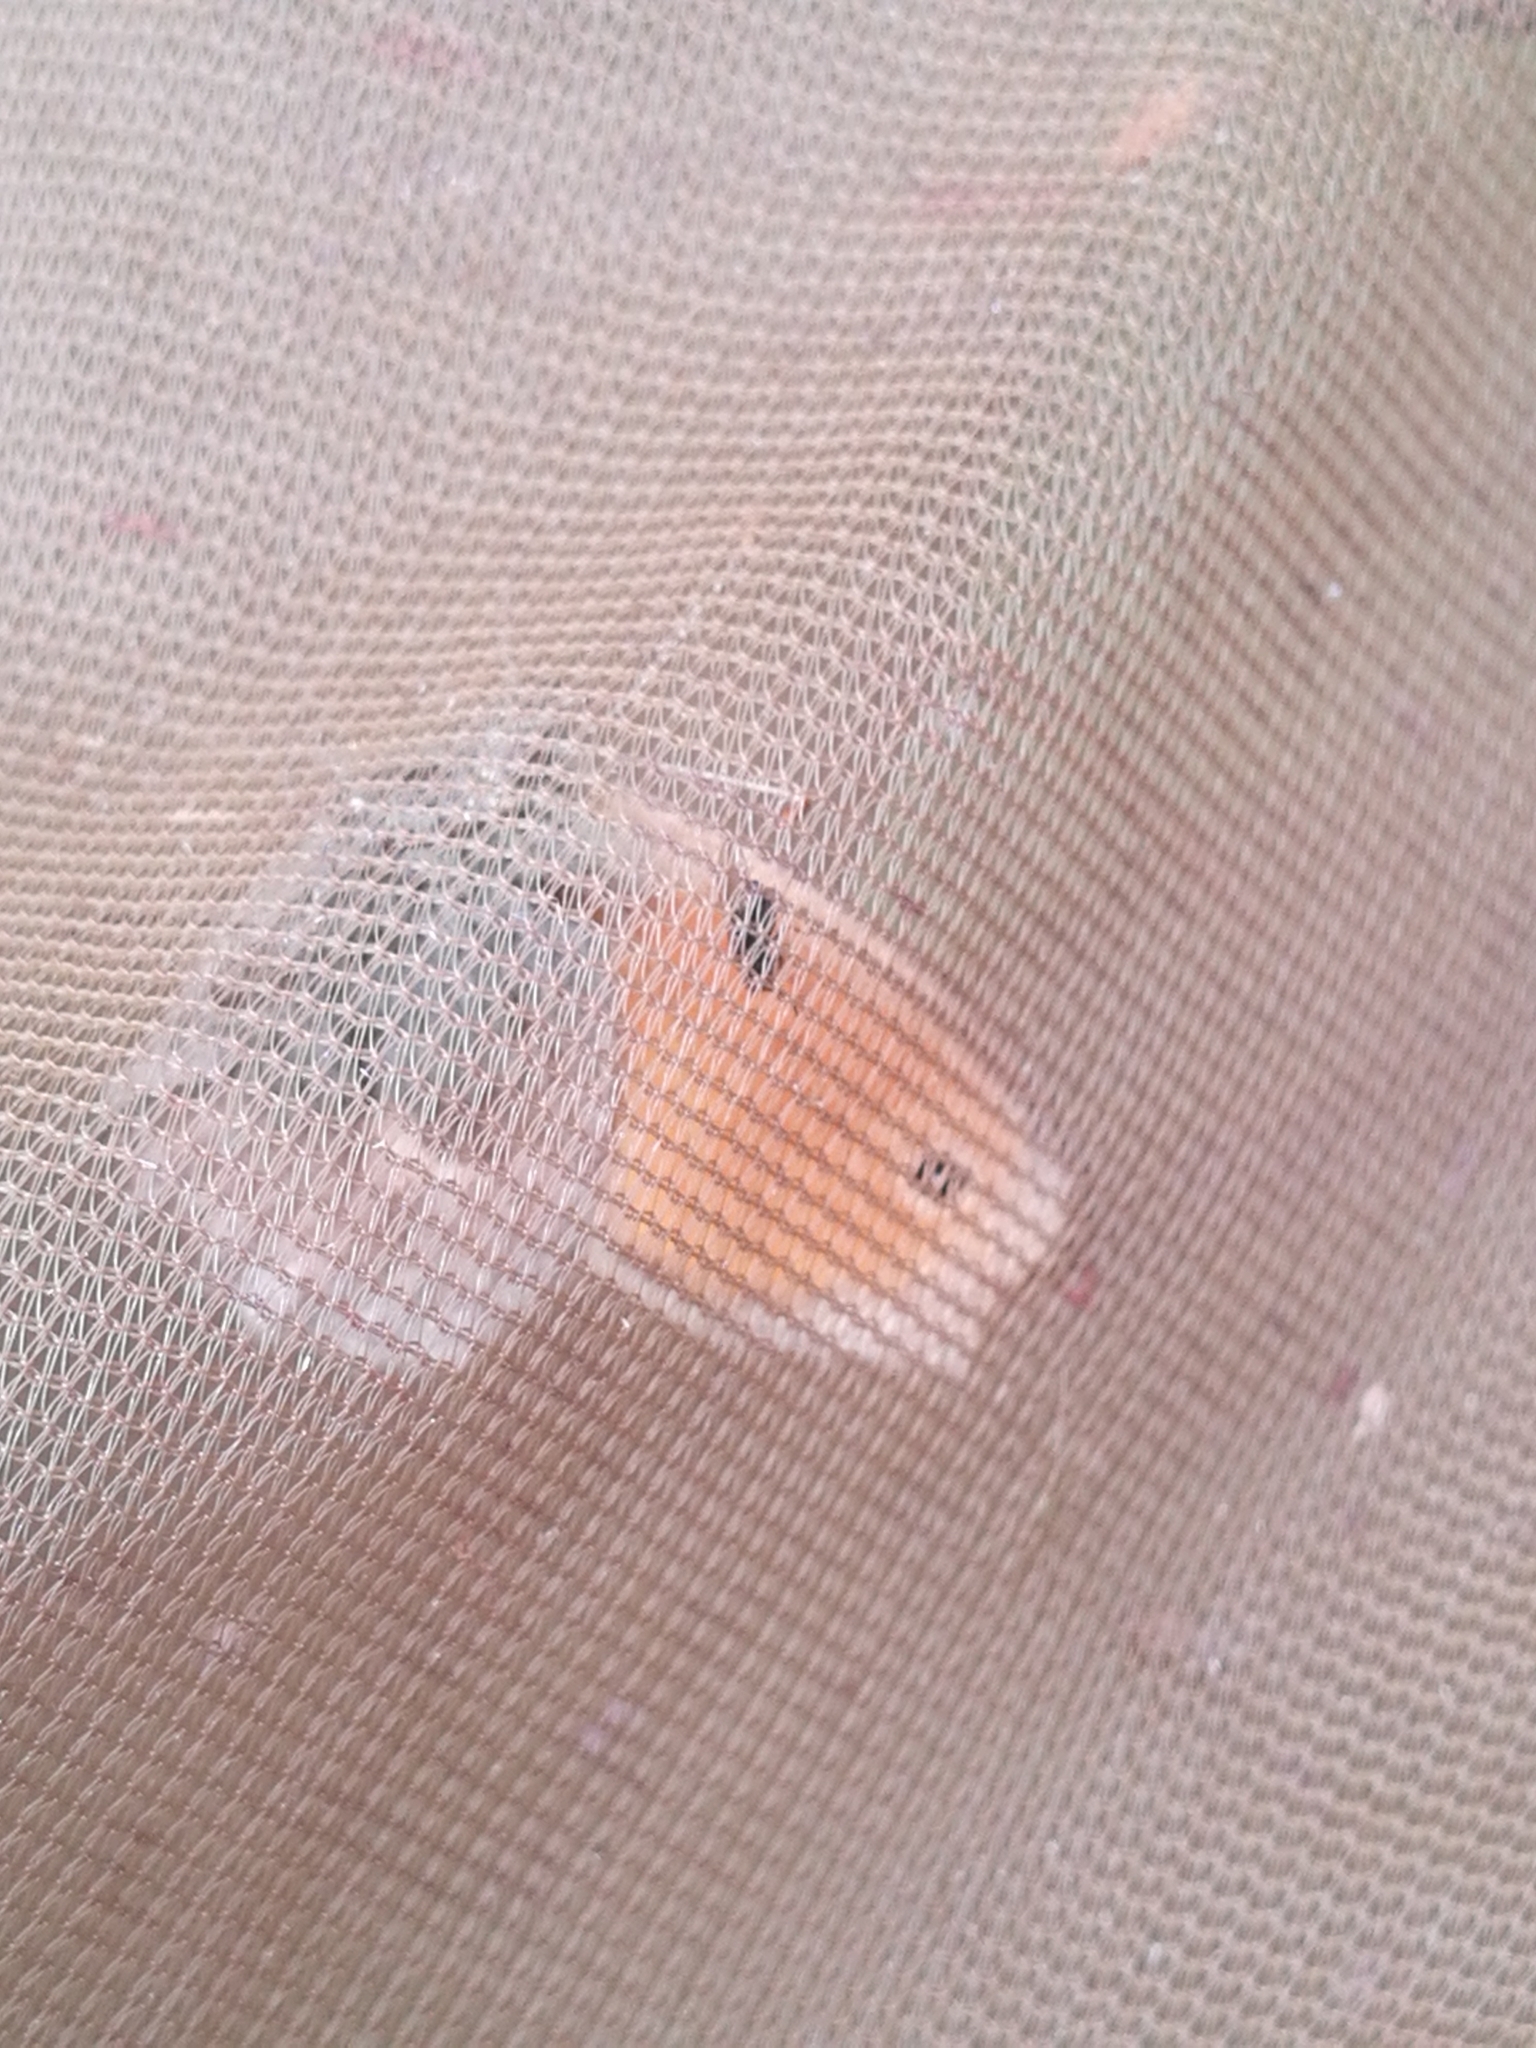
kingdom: Animalia
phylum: Arthropoda
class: Insecta
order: Lepidoptera
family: Nymphalidae
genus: Coenonympha
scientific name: Coenonympha pamphilus
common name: Small heath
